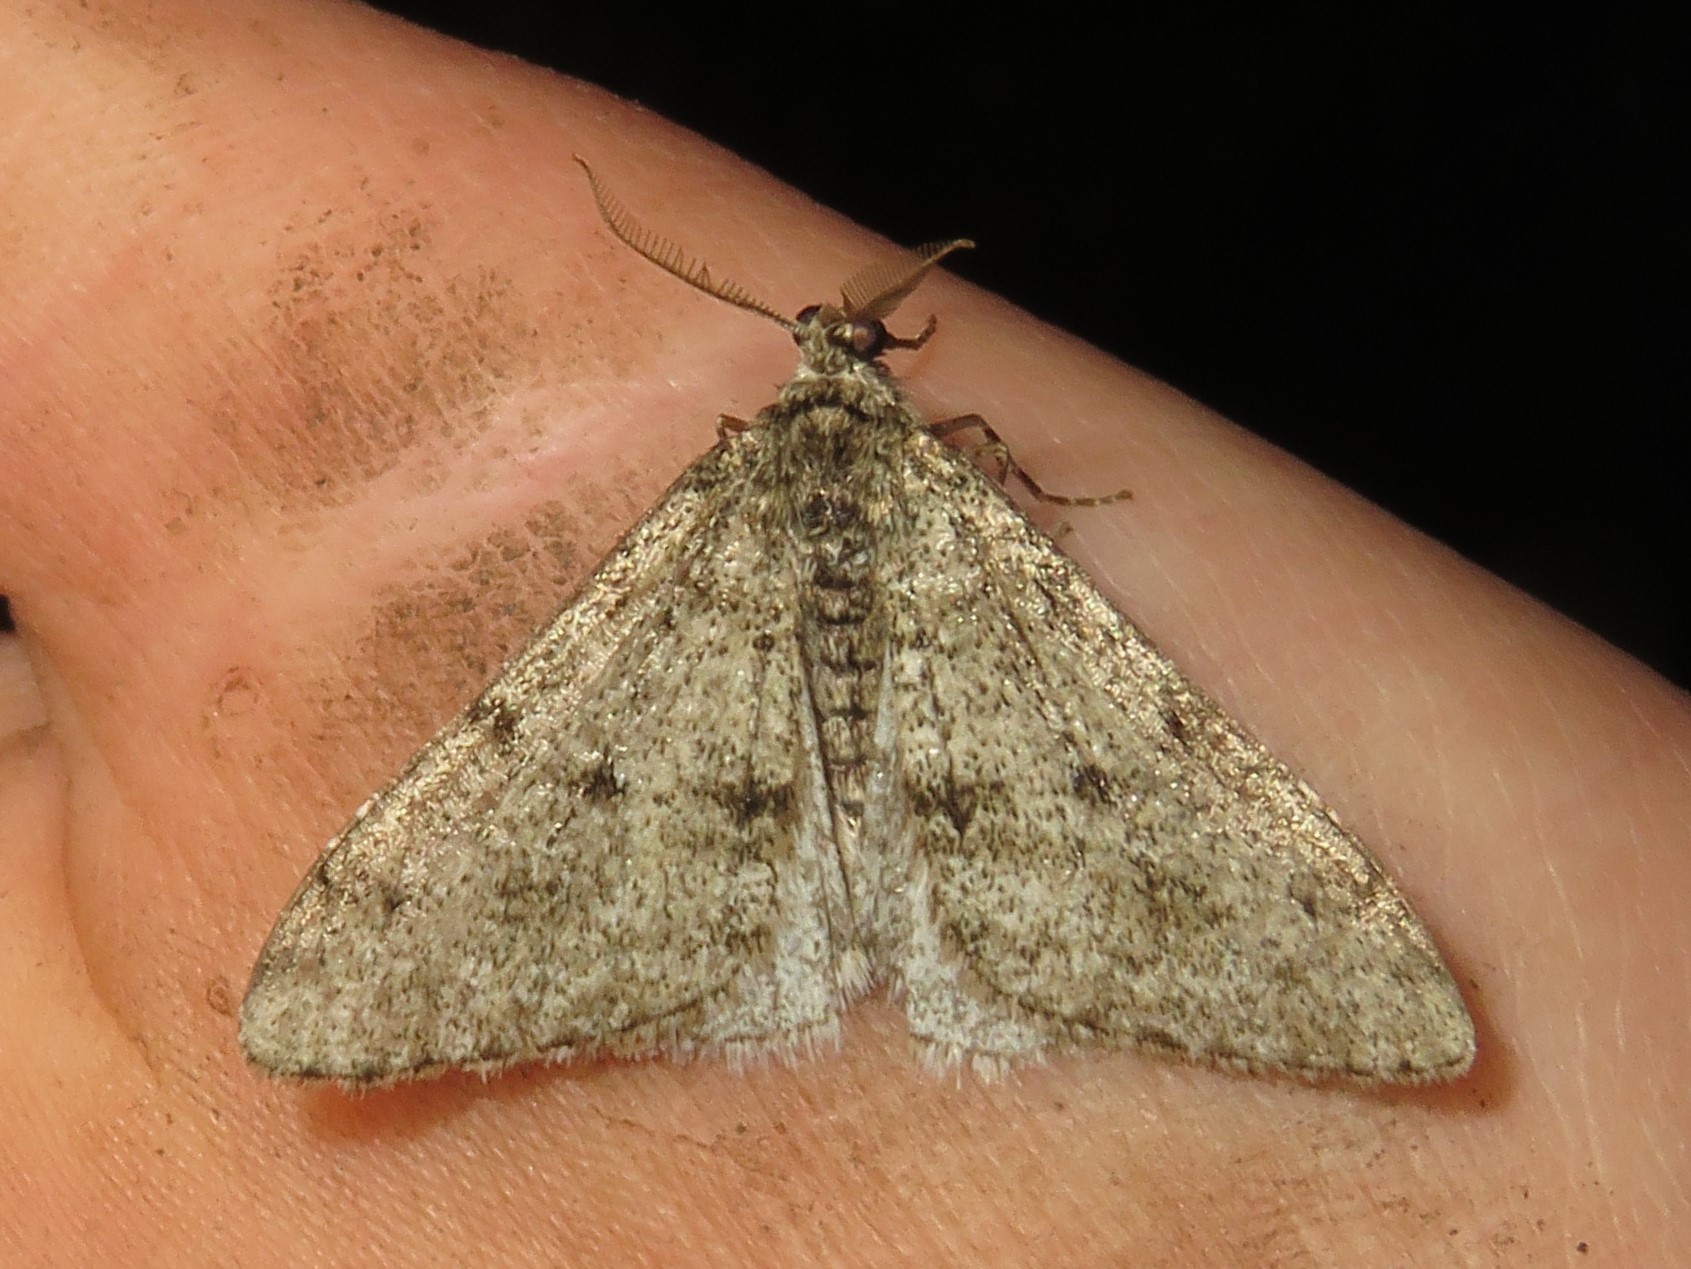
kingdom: Animalia
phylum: Arthropoda
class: Insecta
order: Lepidoptera
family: Geometridae
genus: Phigalia
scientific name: Phigalia strigataria
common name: Small phigalia
